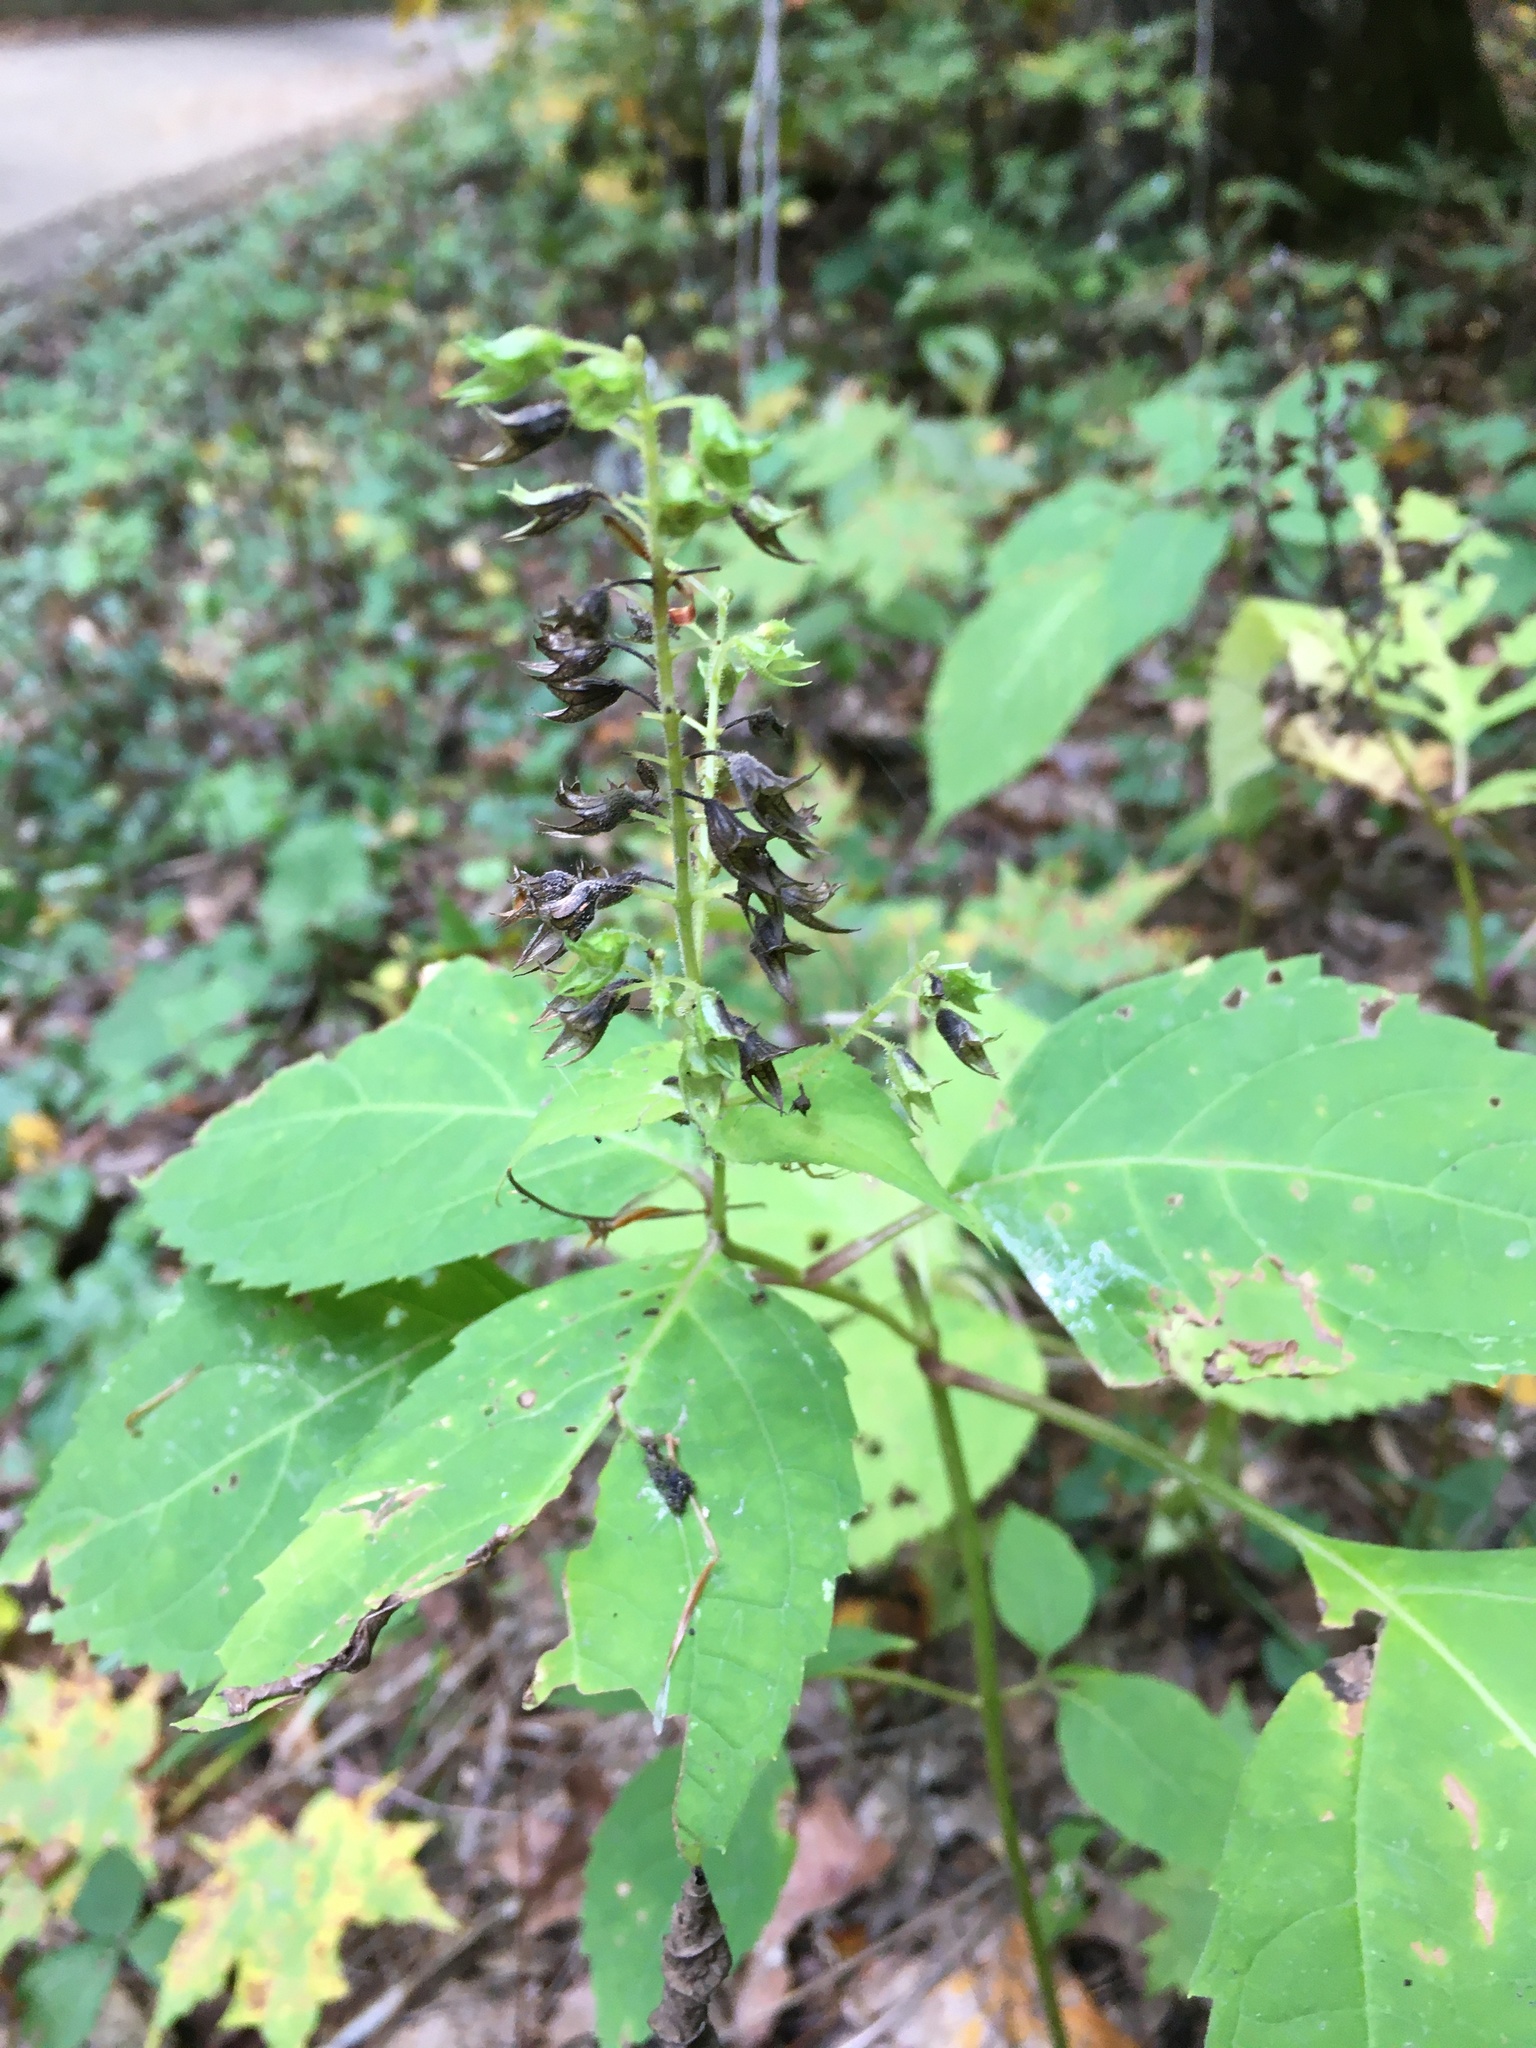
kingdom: Plantae
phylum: Tracheophyta
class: Magnoliopsida
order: Lamiales
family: Lamiaceae
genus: Collinsonia
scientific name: Collinsonia canadensis
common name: Northern horsebalm
